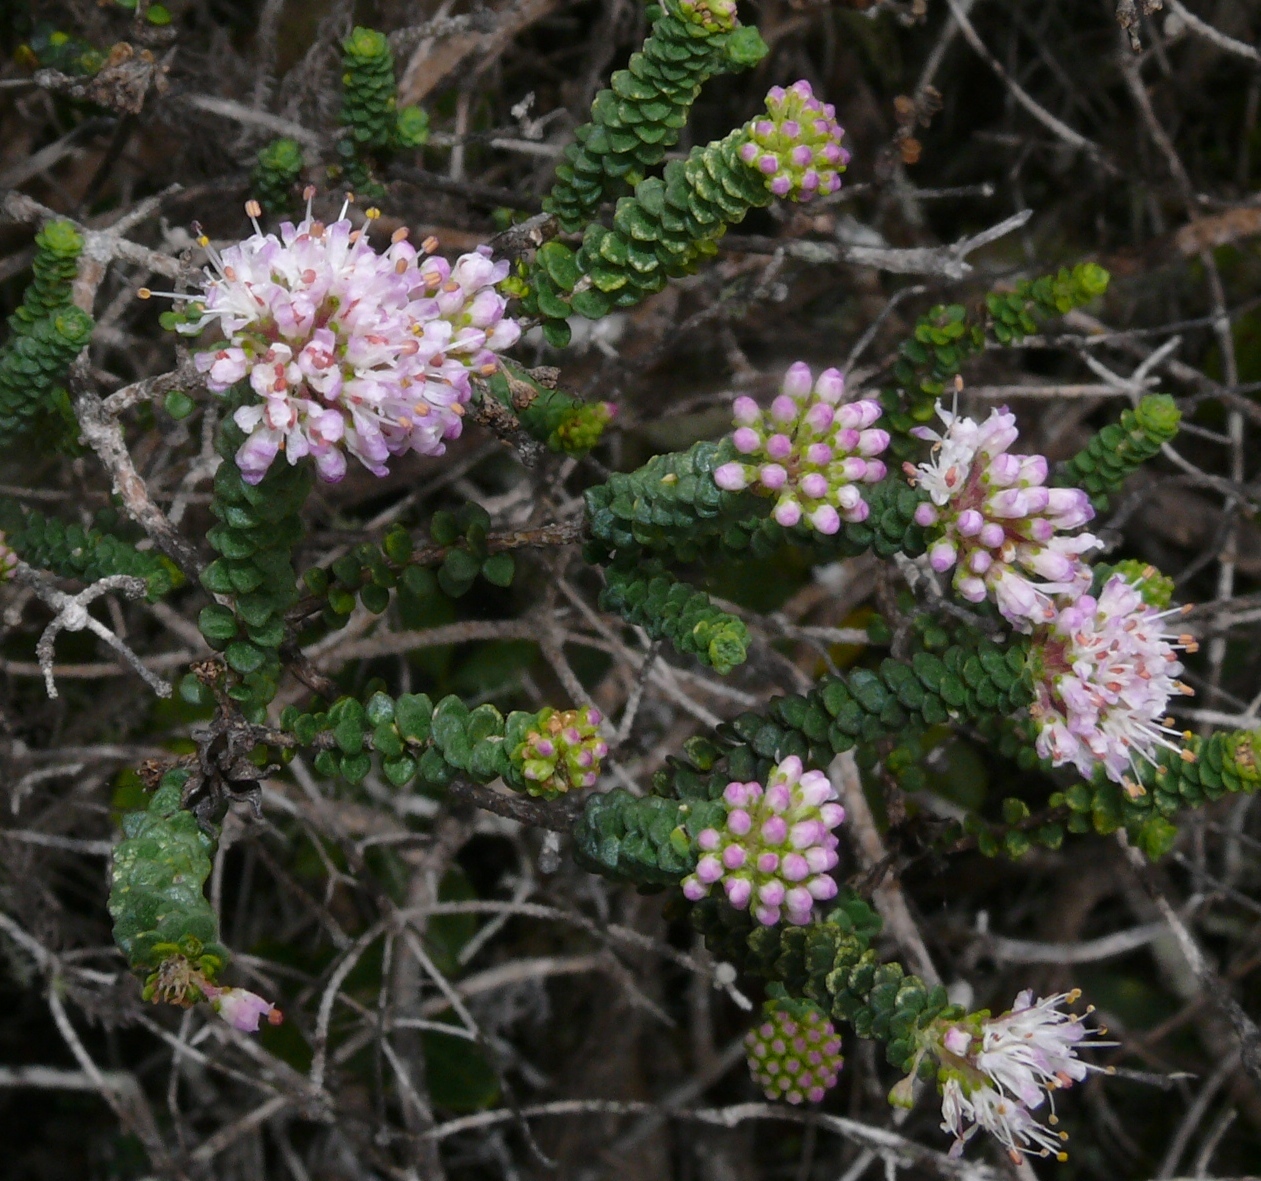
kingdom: Plantae
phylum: Tracheophyta
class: Magnoliopsida
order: Sapindales
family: Rutaceae
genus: Agathosma
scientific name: Agathosma muirii
